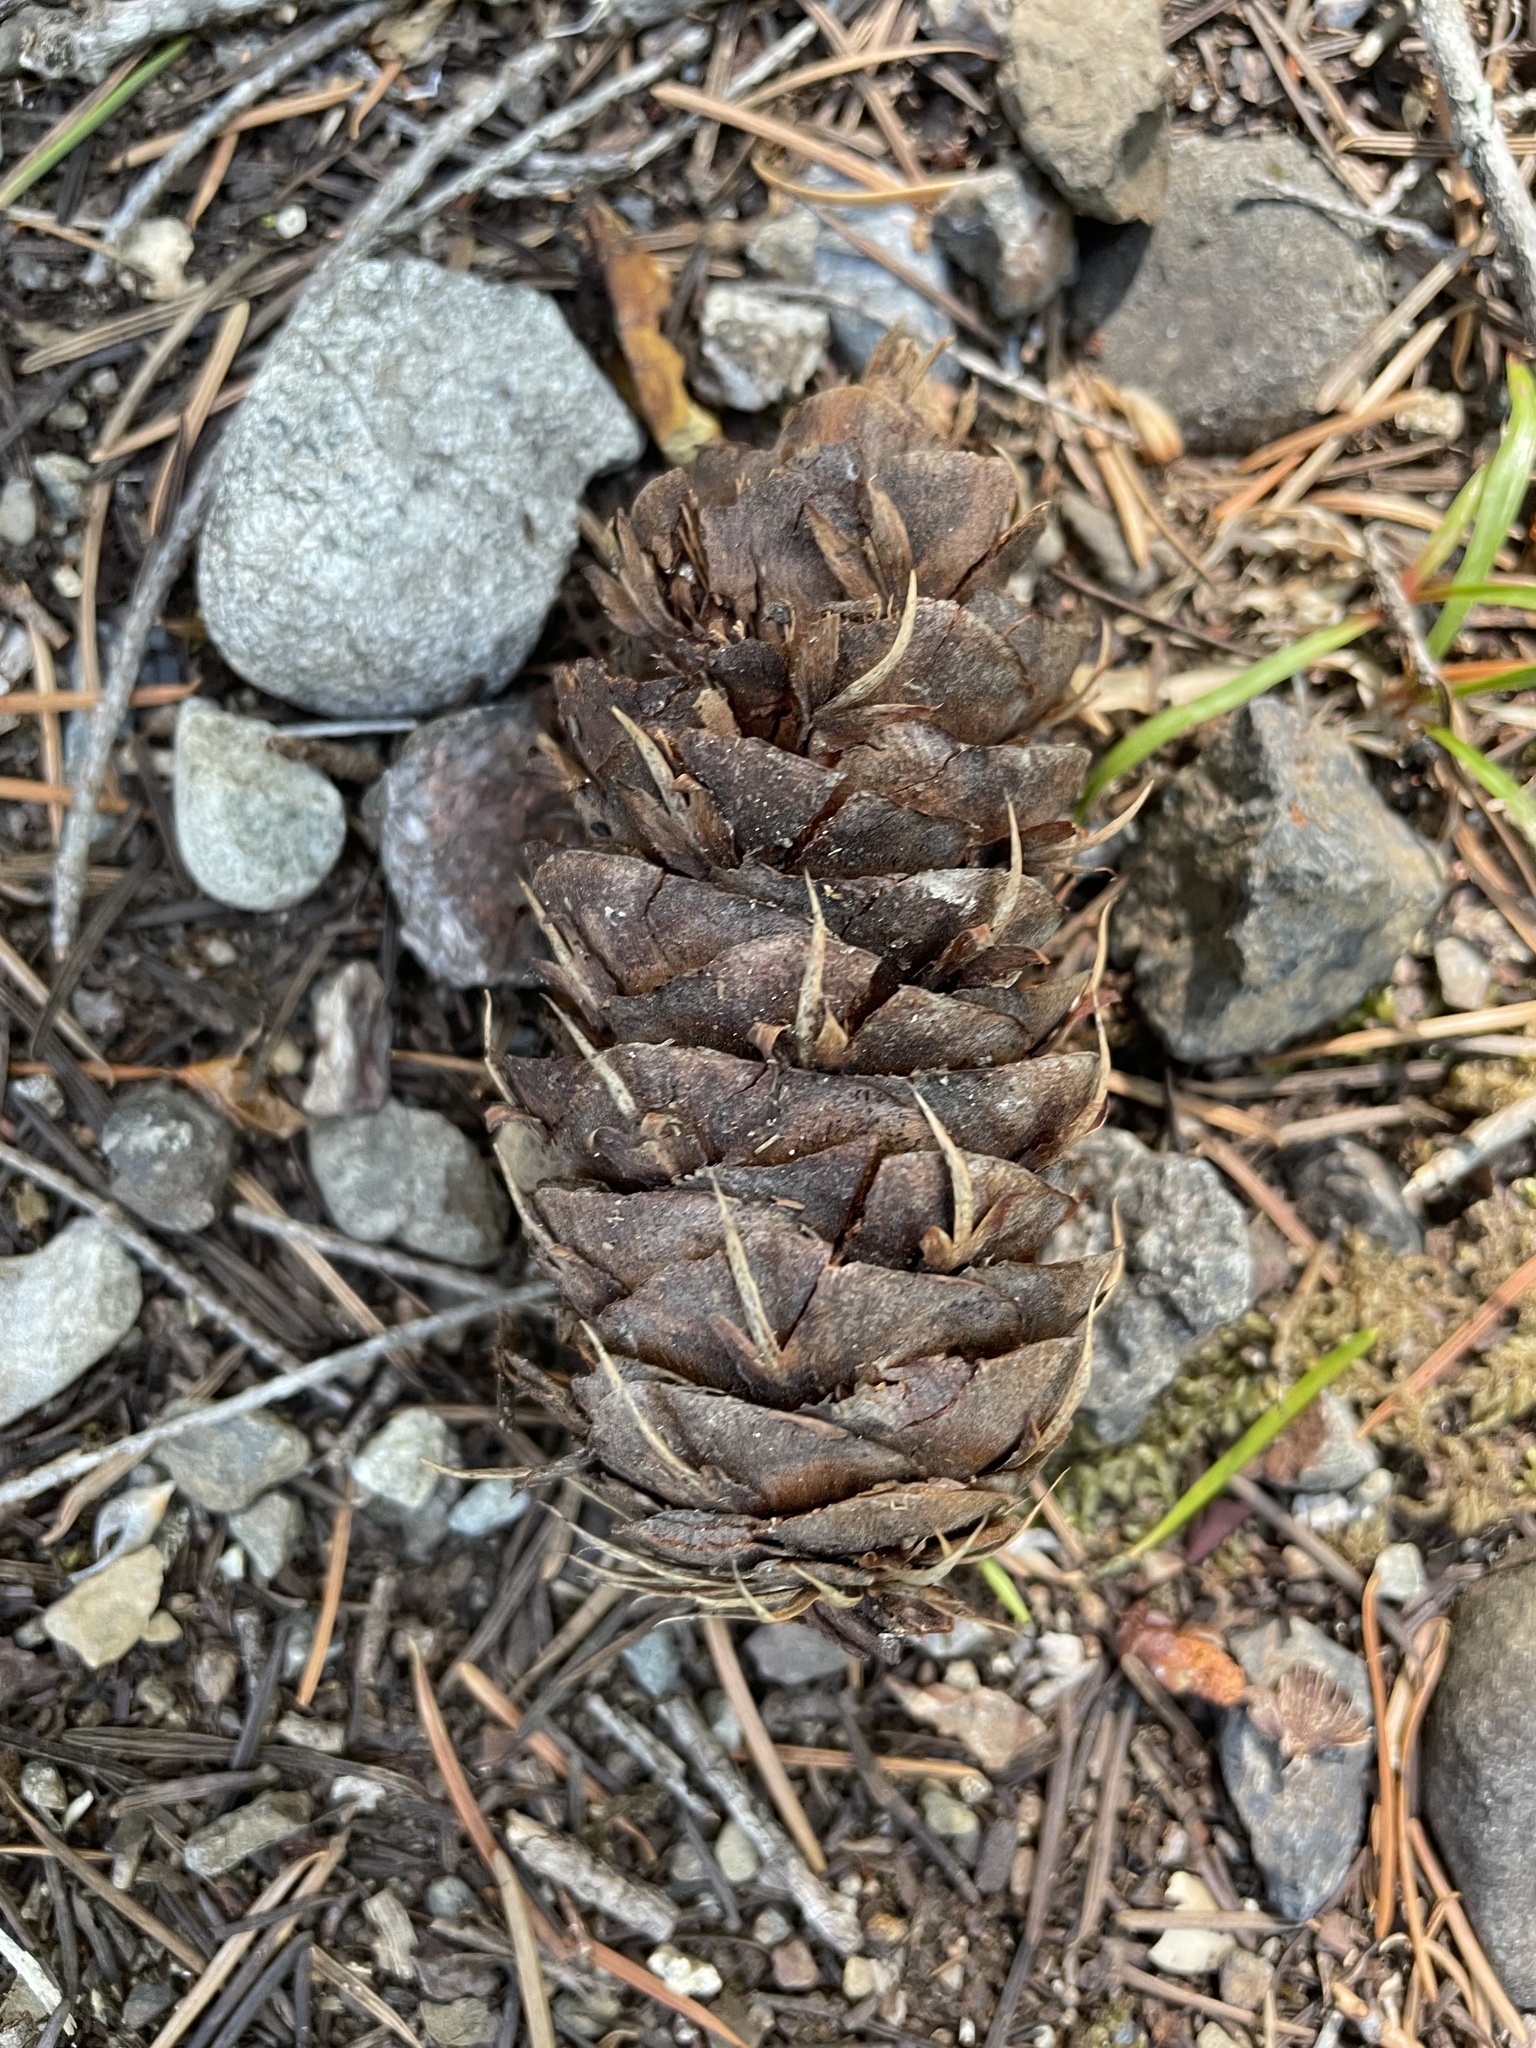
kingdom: Plantae
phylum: Tracheophyta
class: Pinopsida
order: Pinales
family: Pinaceae
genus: Pseudotsuga
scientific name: Pseudotsuga menziesii
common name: Douglas fir
